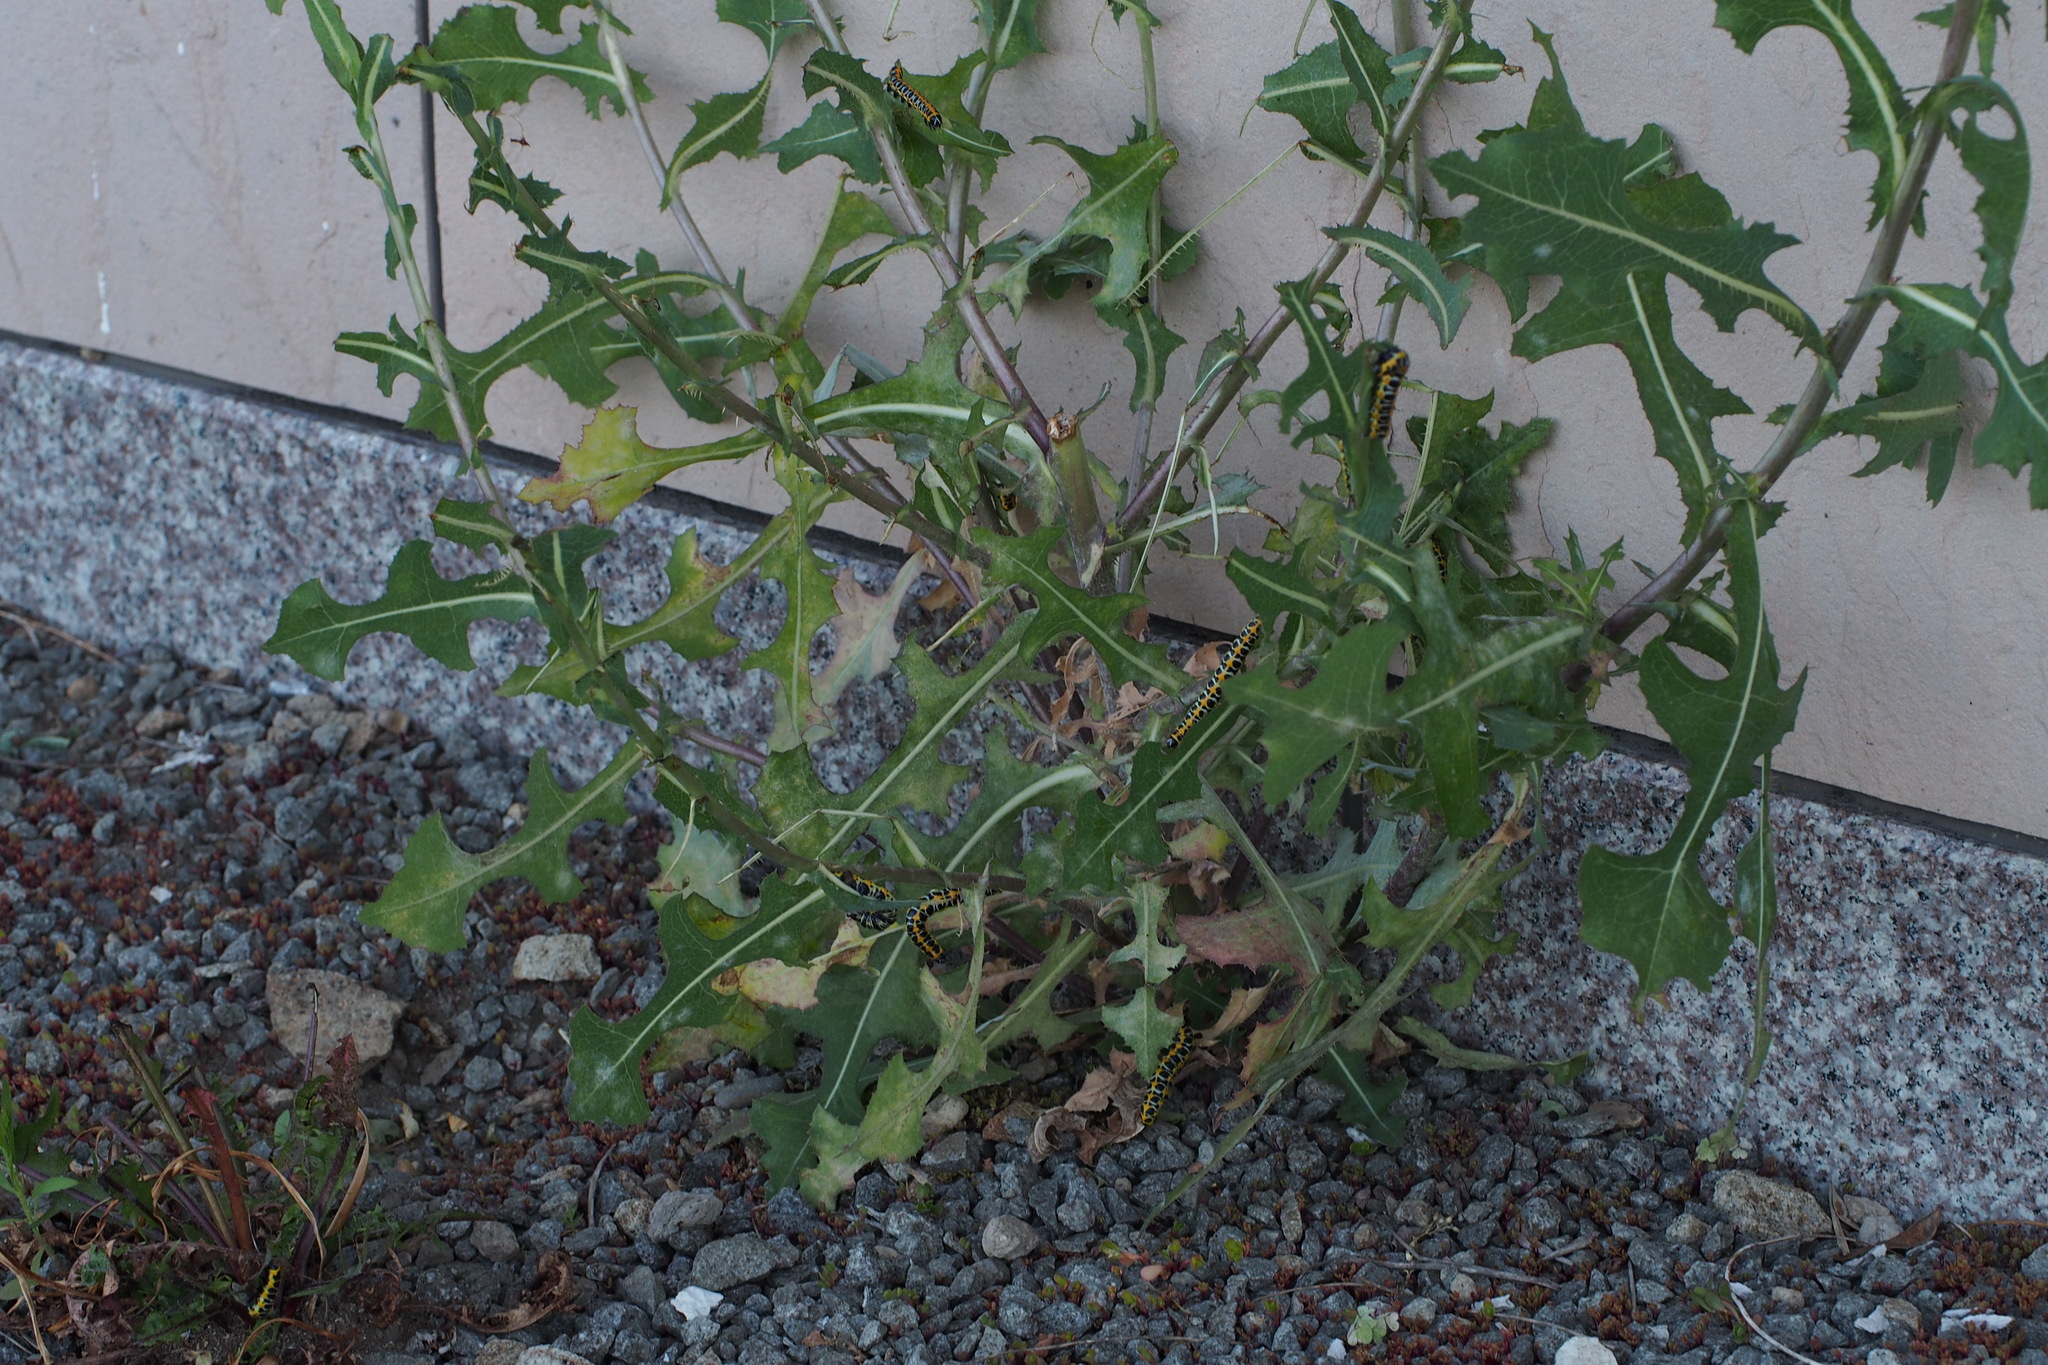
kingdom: Plantae
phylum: Tracheophyta
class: Magnoliopsida
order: Asterales
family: Asteraceae
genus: Lactuca
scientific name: Lactuca serriola
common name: Prickly lettuce
